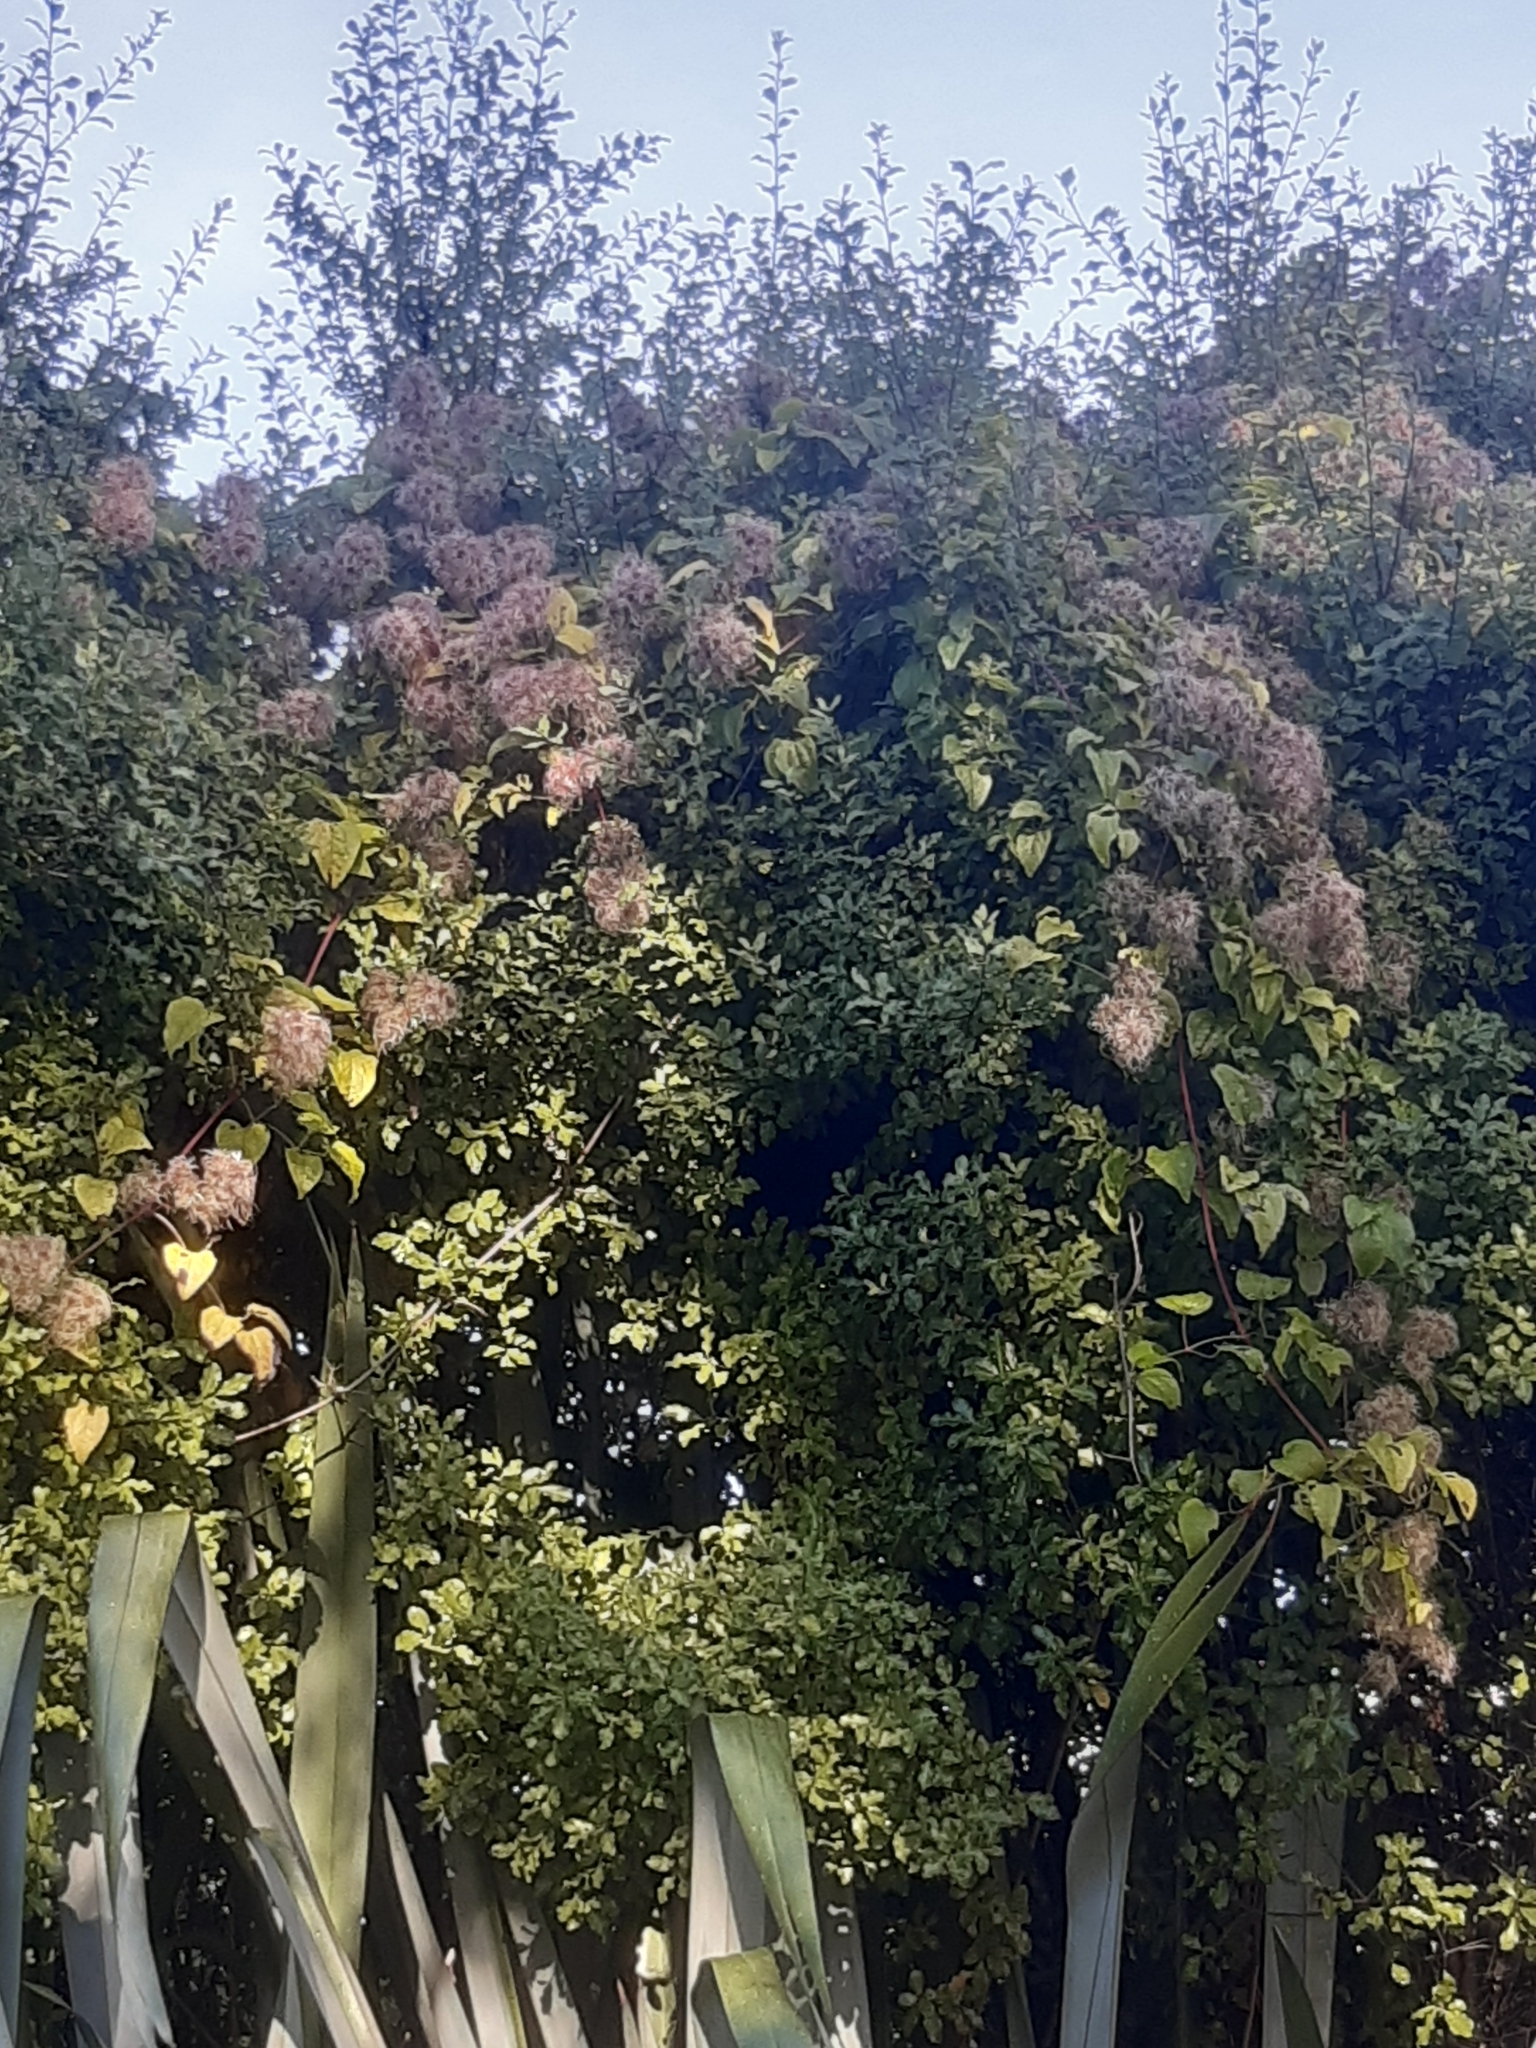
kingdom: Plantae
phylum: Tracheophyta
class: Magnoliopsida
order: Ranunculales
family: Ranunculaceae
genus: Clematis
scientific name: Clematis vitalba
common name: Evergreen clematis
